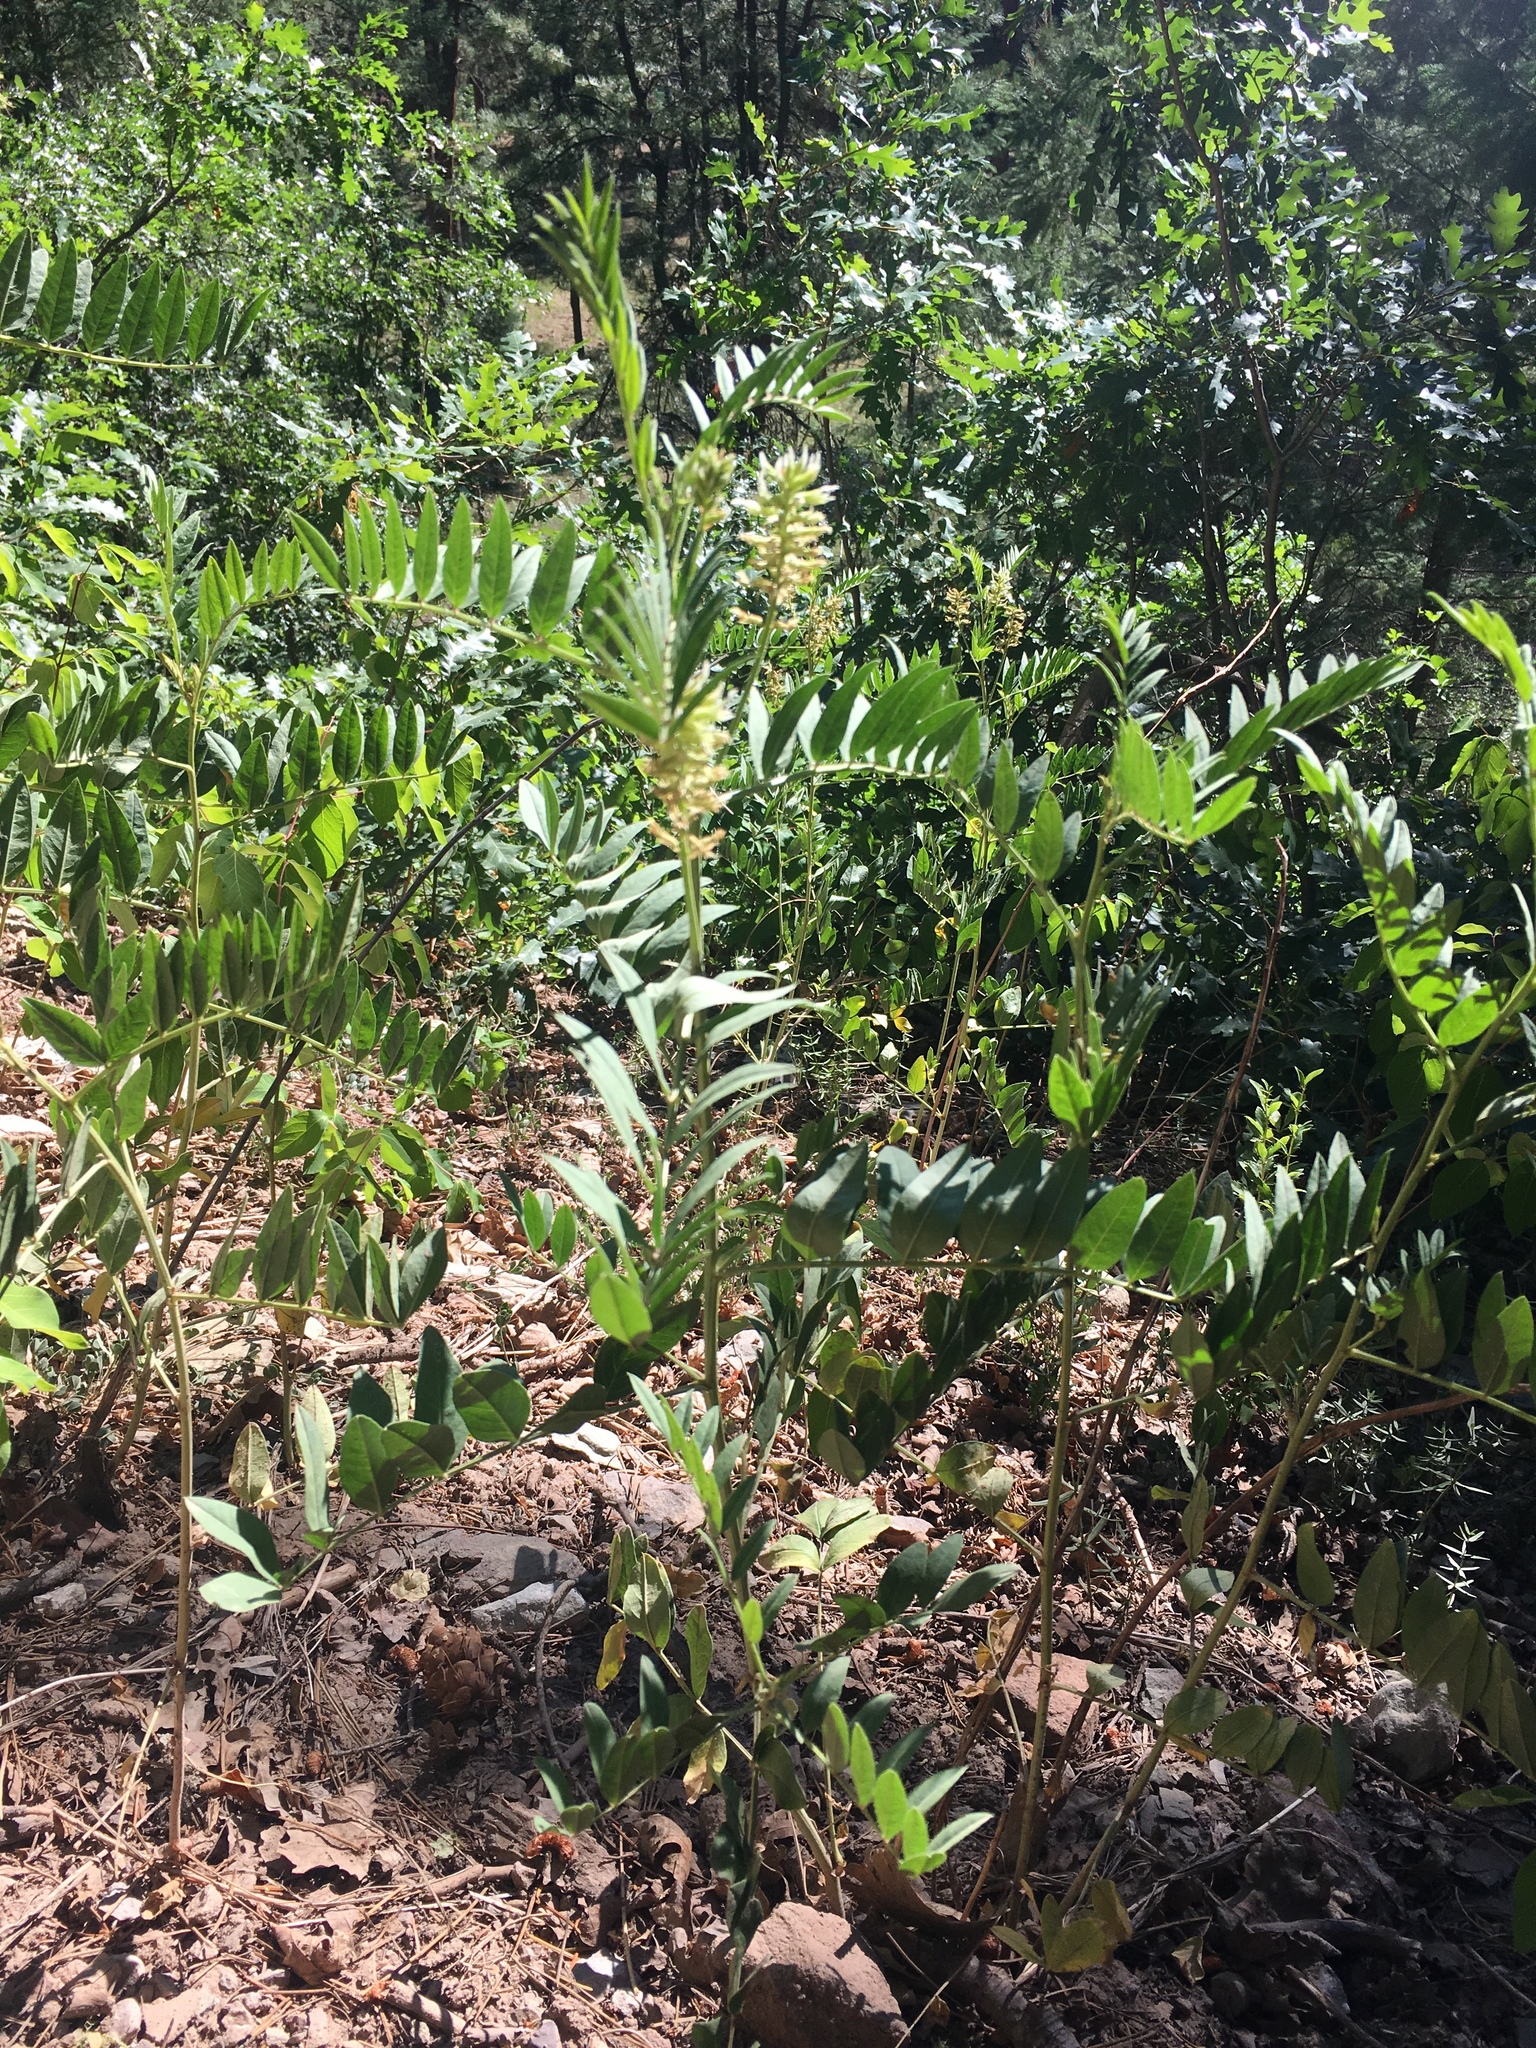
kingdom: Plantae
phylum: Tracheophyta
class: Magnoliopsida
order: Fabales
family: Fabaceae
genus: Glycyrrhiza
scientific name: Glycyrrhiza lepidota
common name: American liquorice
